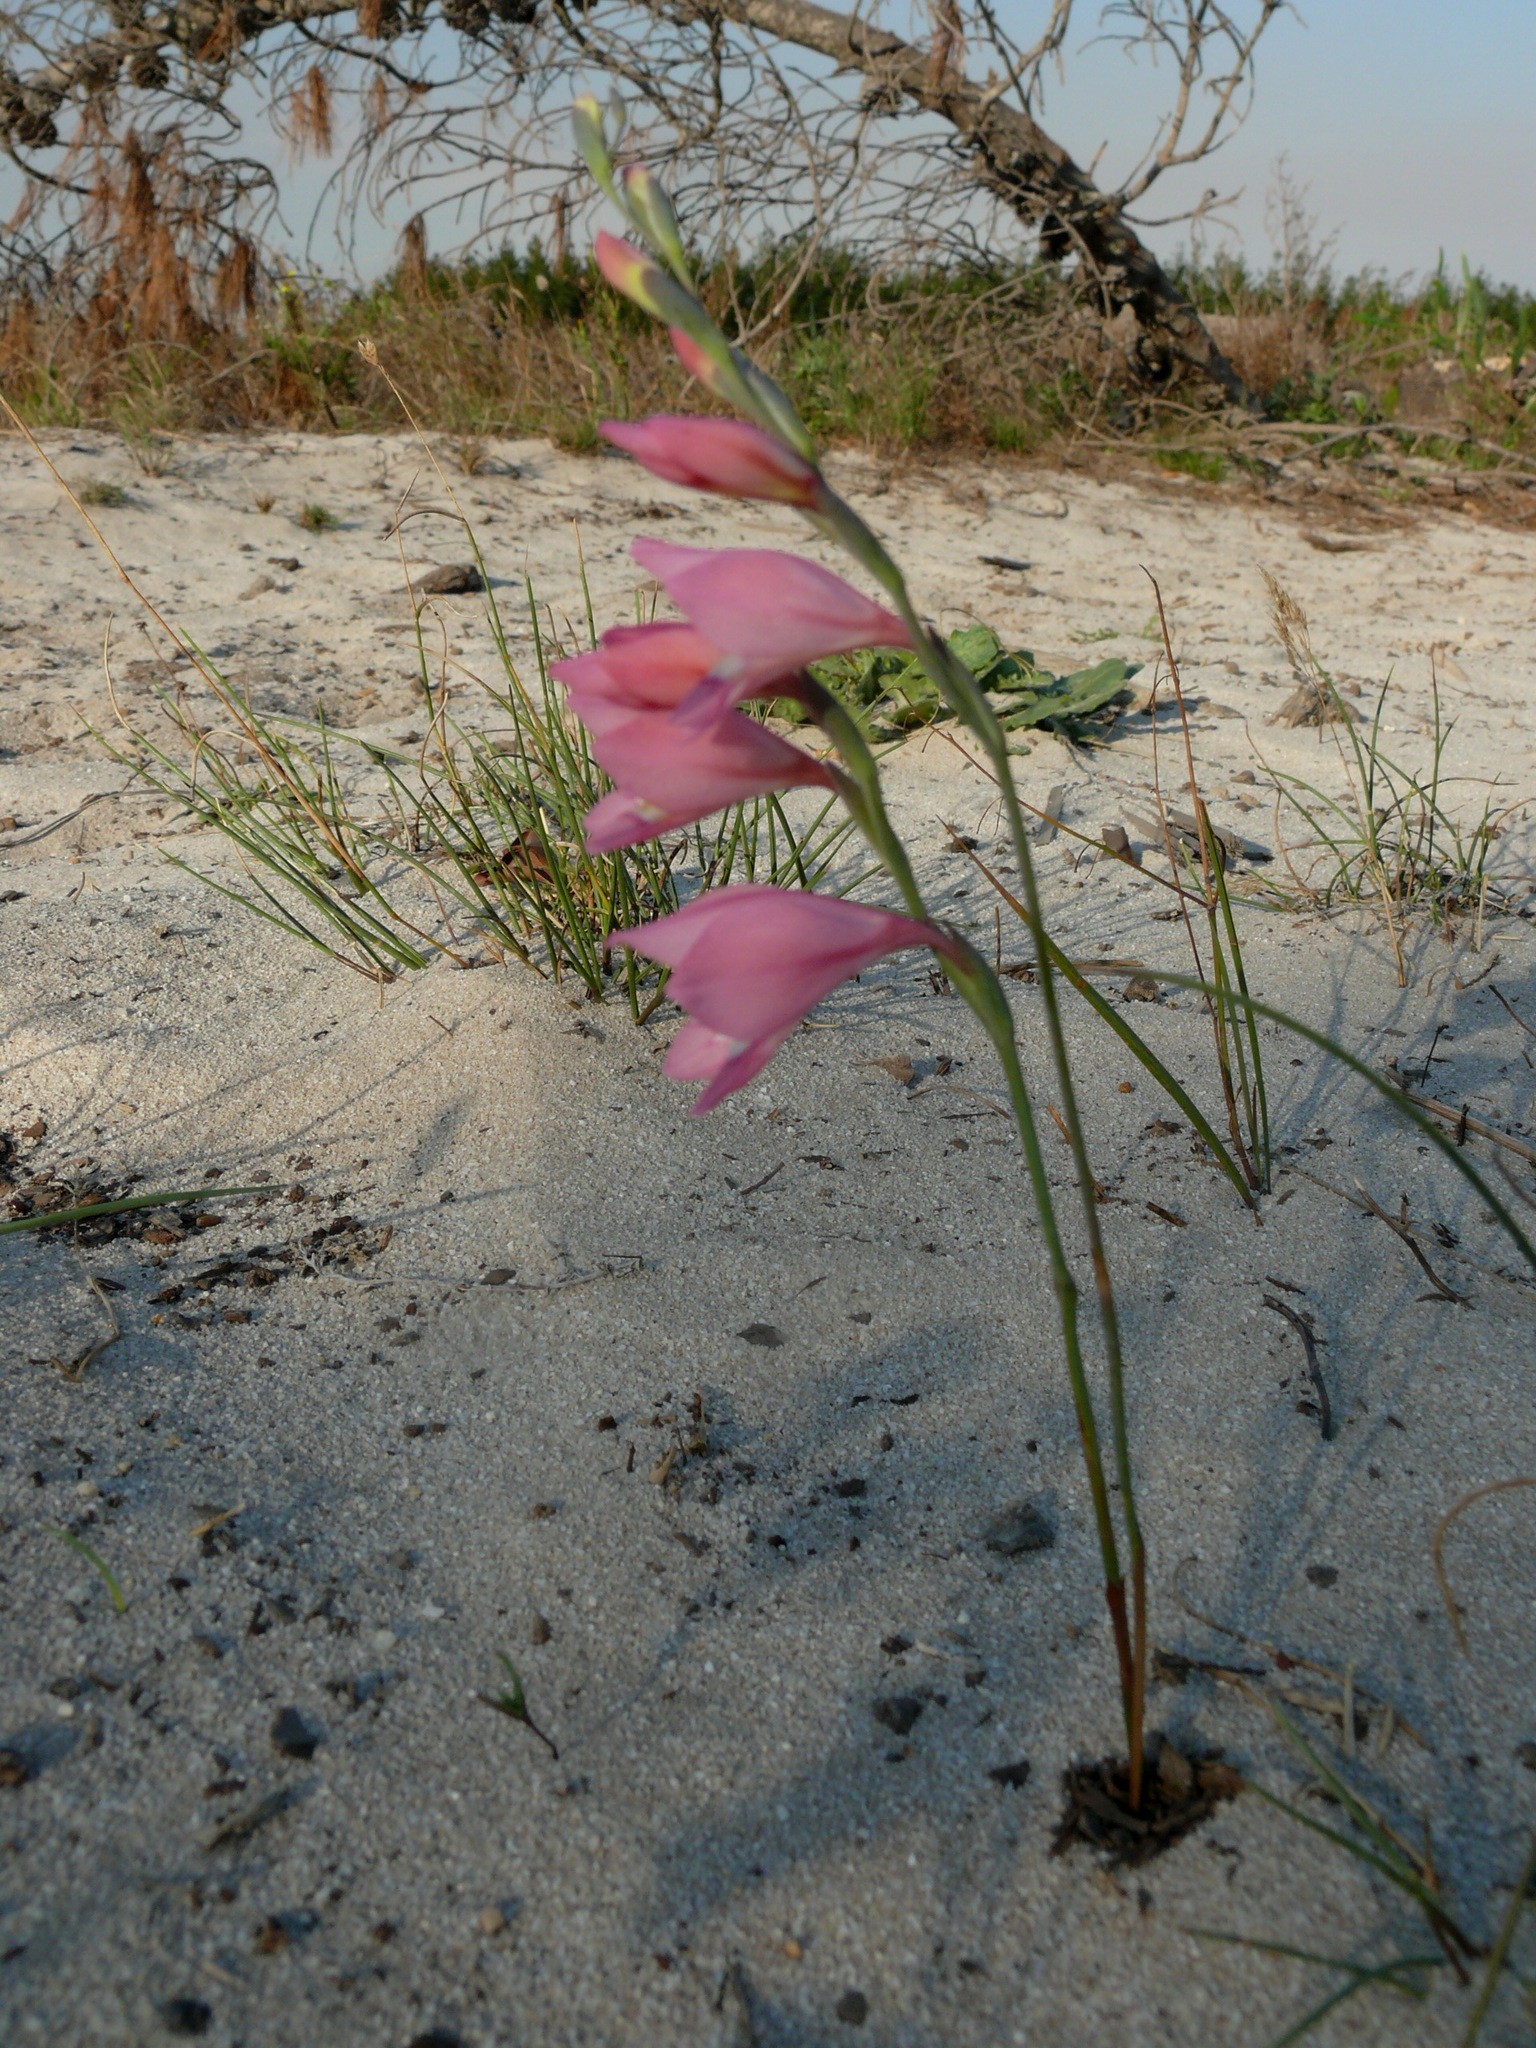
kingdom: Plantae
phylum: Tracheophyta
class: Liliopsida
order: Asparagales
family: Iridaceae
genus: Gladiolus
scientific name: Gladiolus brevifolius
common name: March pypie
